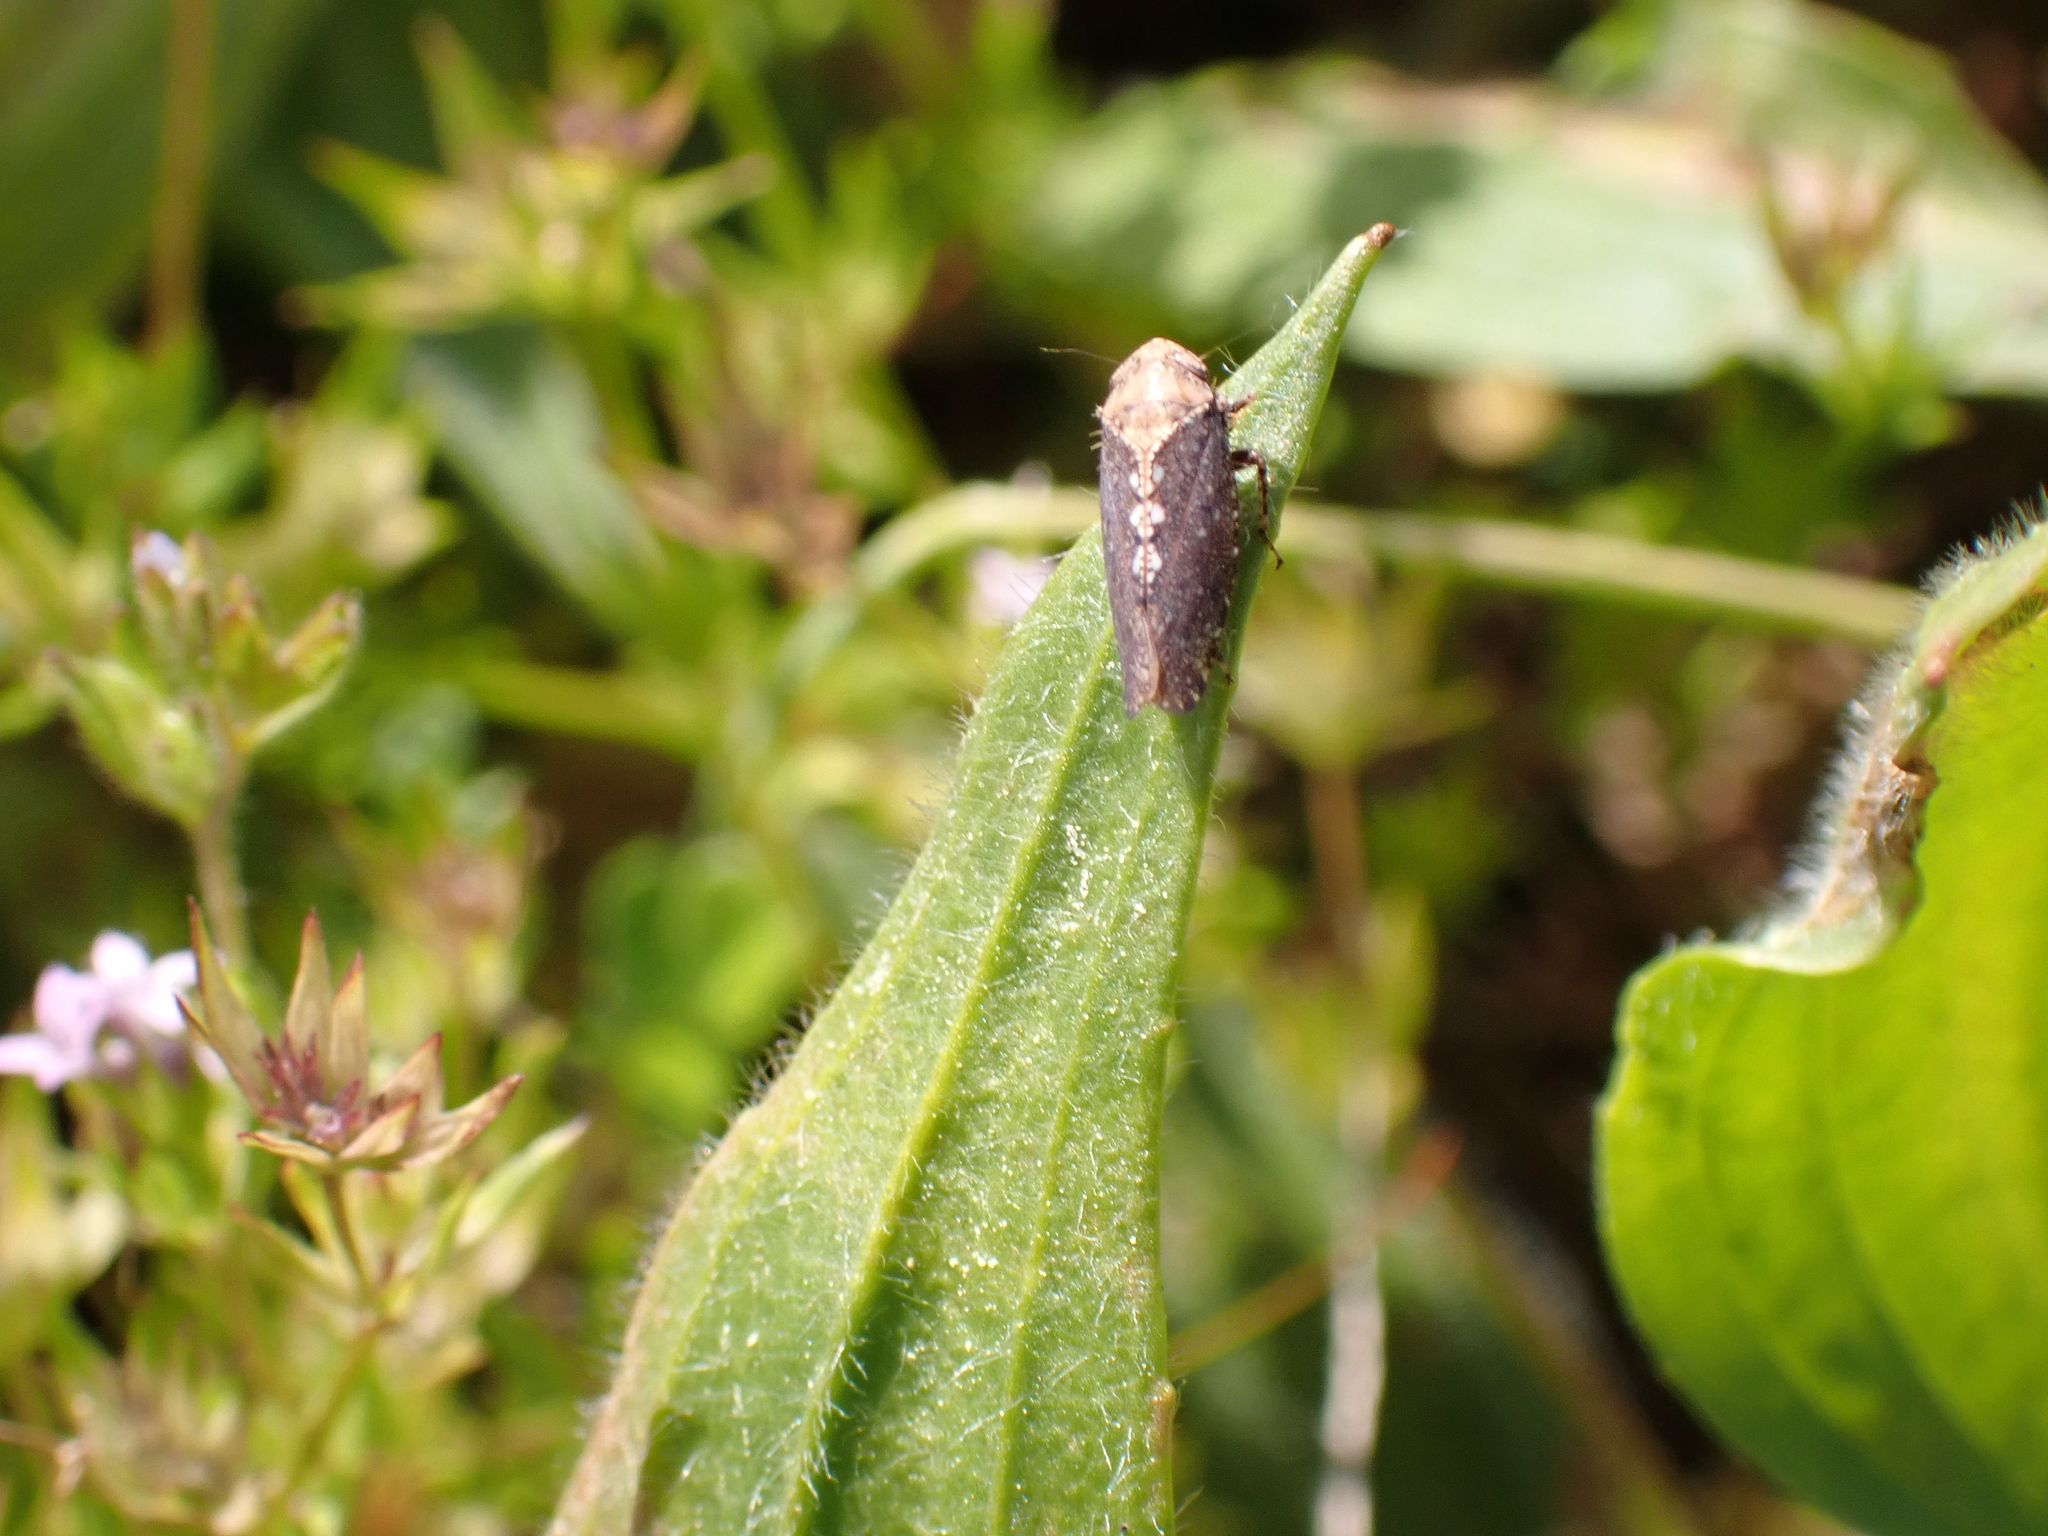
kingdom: Animalia
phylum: Arthropoda
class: Insecta
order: Hemiptera
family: Cicadellidae
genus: Excultanus
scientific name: Excultanus excultus
